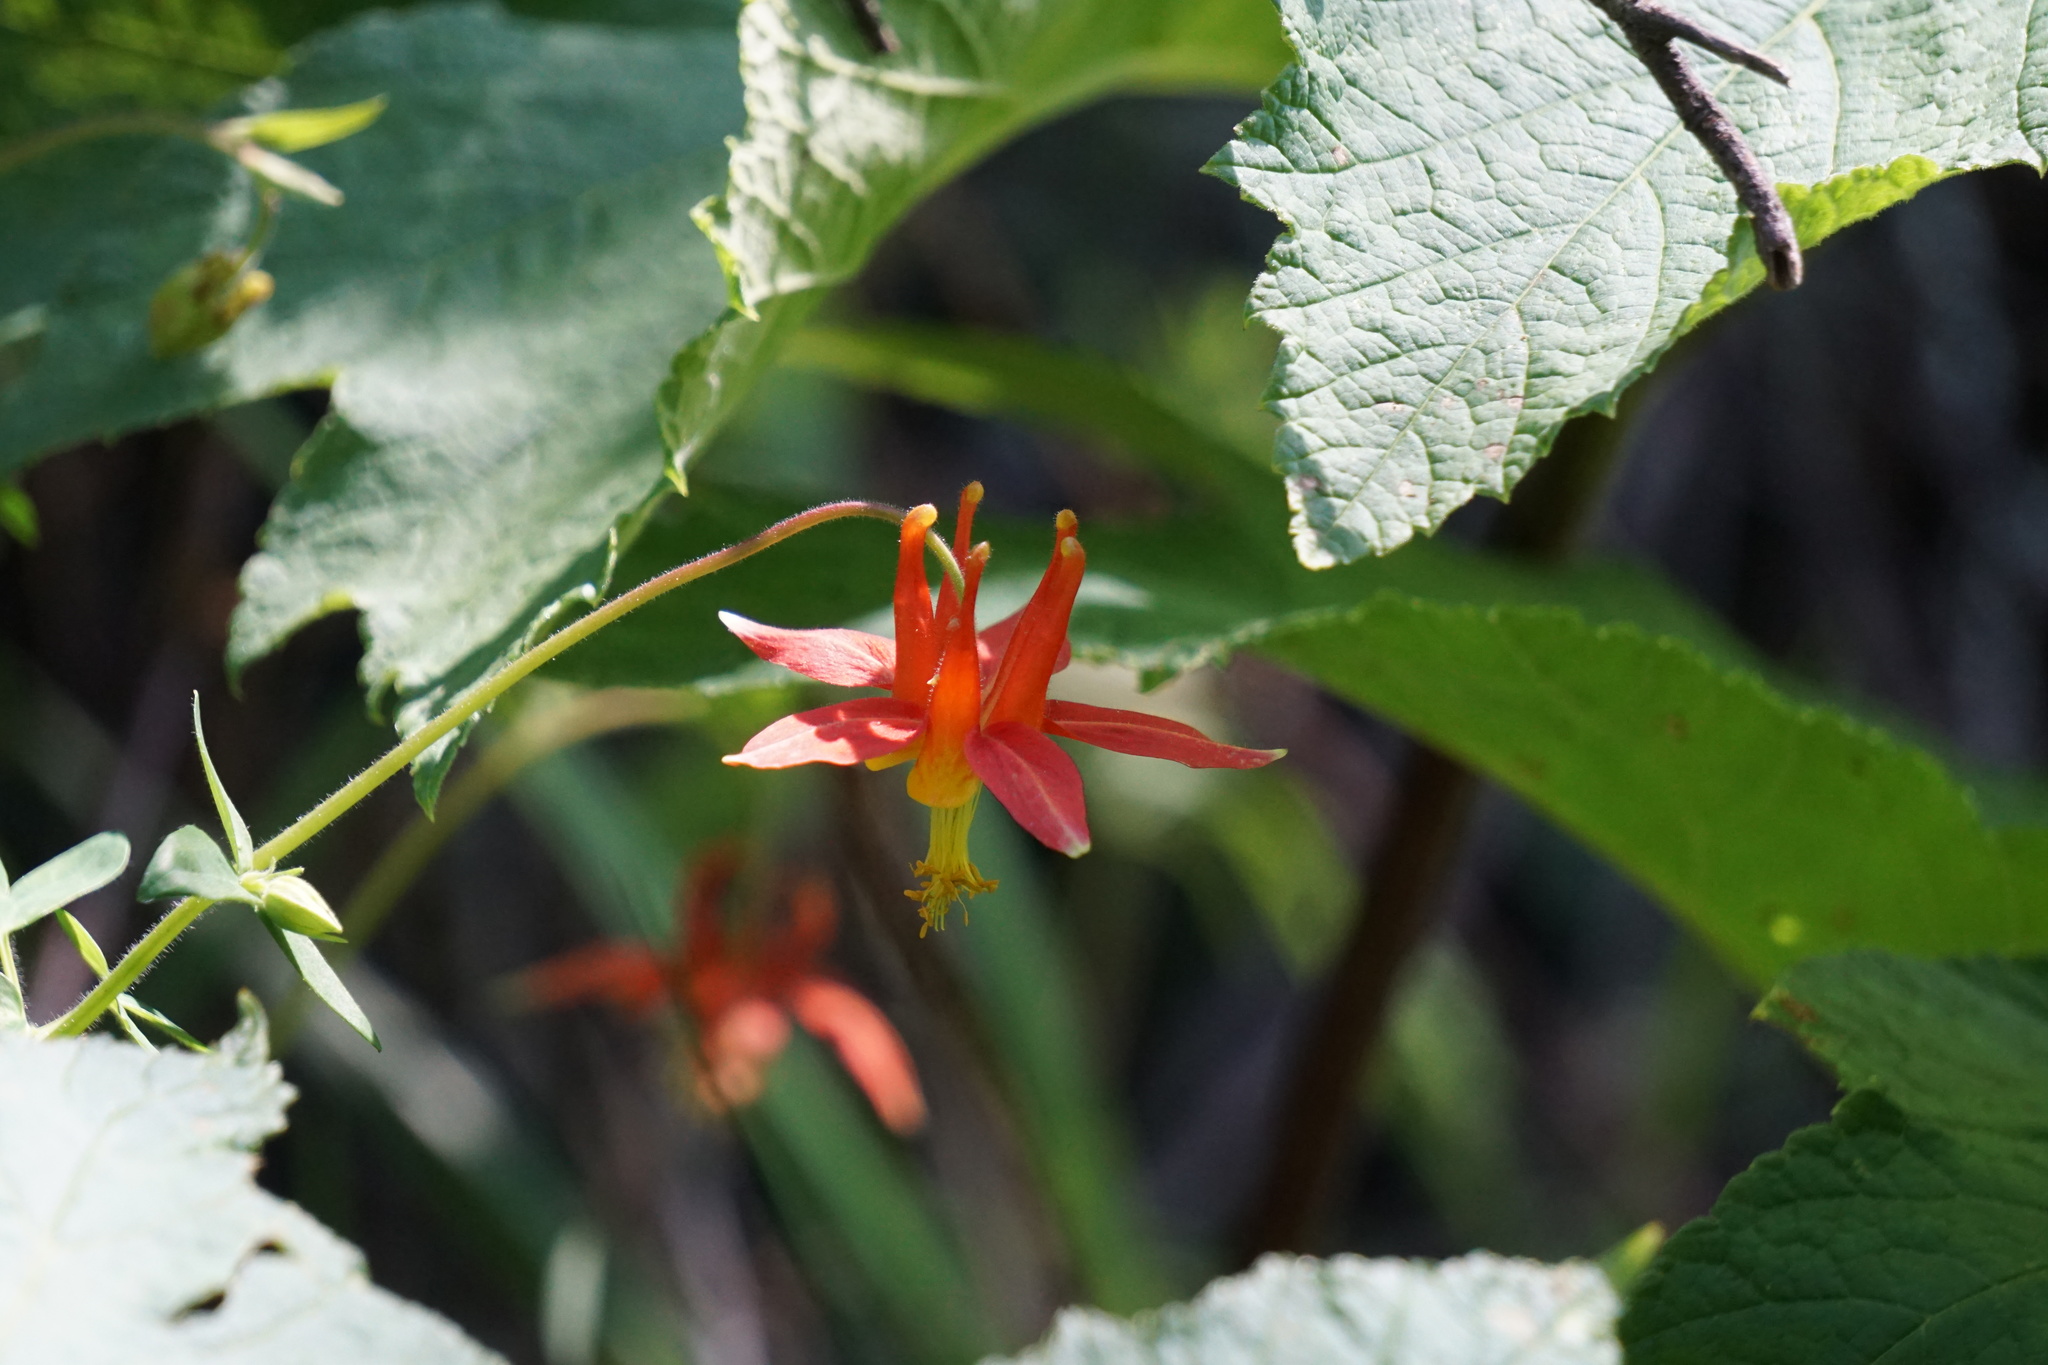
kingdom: Plantae
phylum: Tracheophyta
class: Magnoliopsida
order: Ranunculales
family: Ranunculaceae
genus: Aquilegia
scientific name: Aquilegia formosa
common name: Sitka columbine
